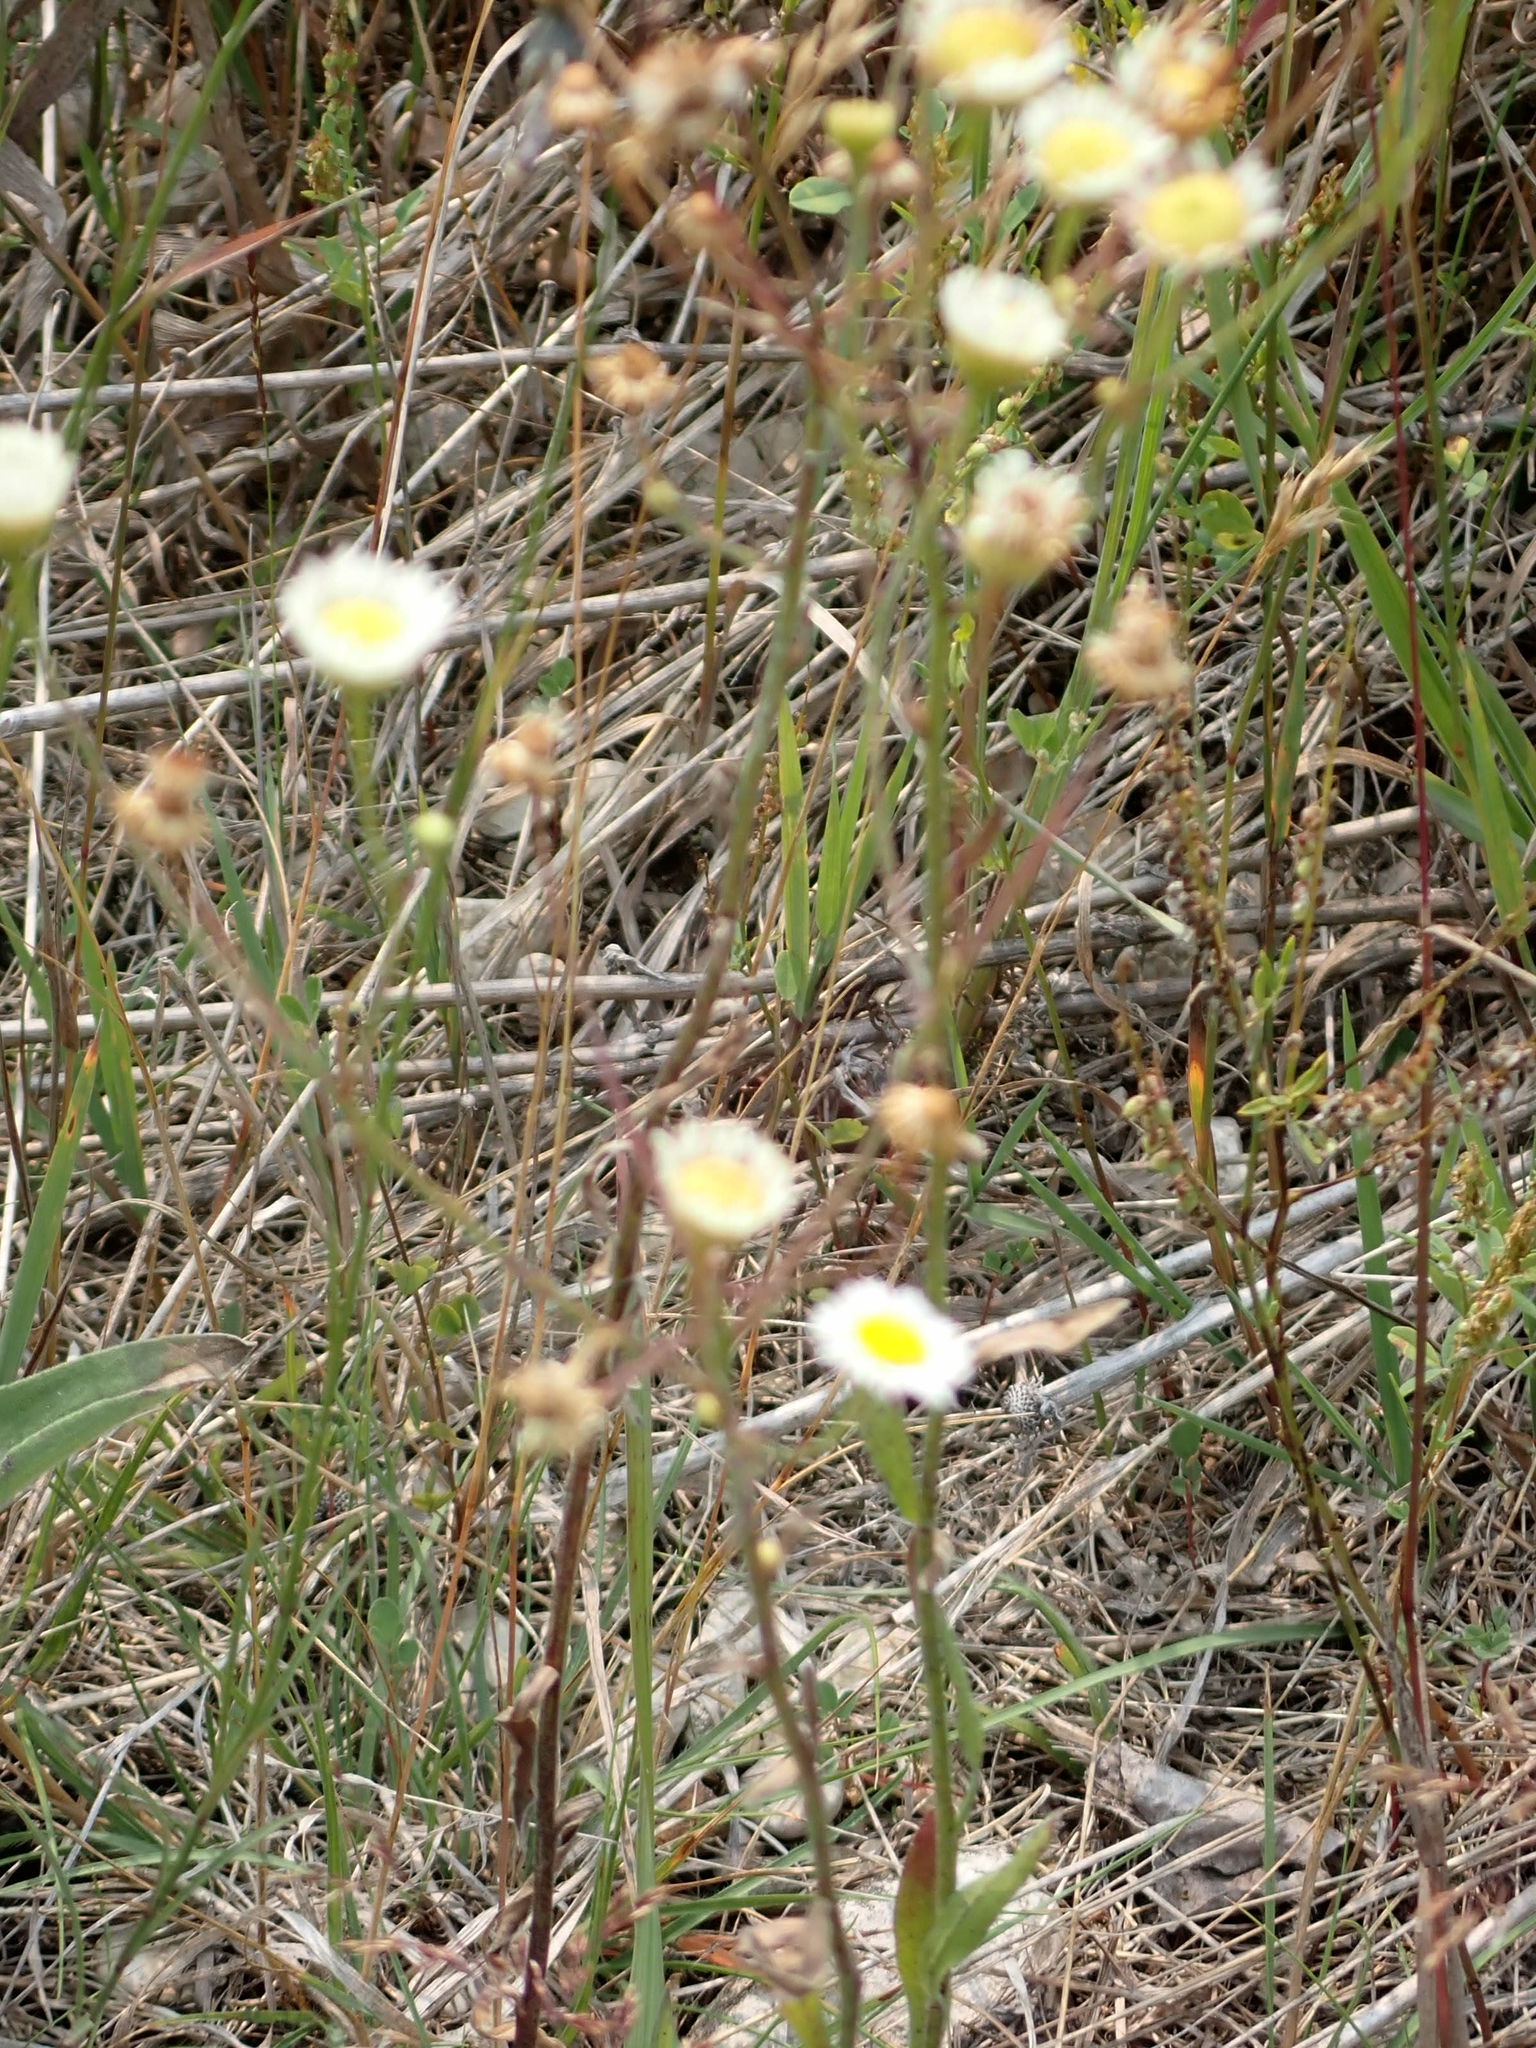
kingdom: Plantae
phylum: Tracheophyta
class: Magnoliopsida
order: Asterales
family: Asteraceae
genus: Erigeron
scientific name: Erigeron strigosus
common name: Common eastern fleabane
